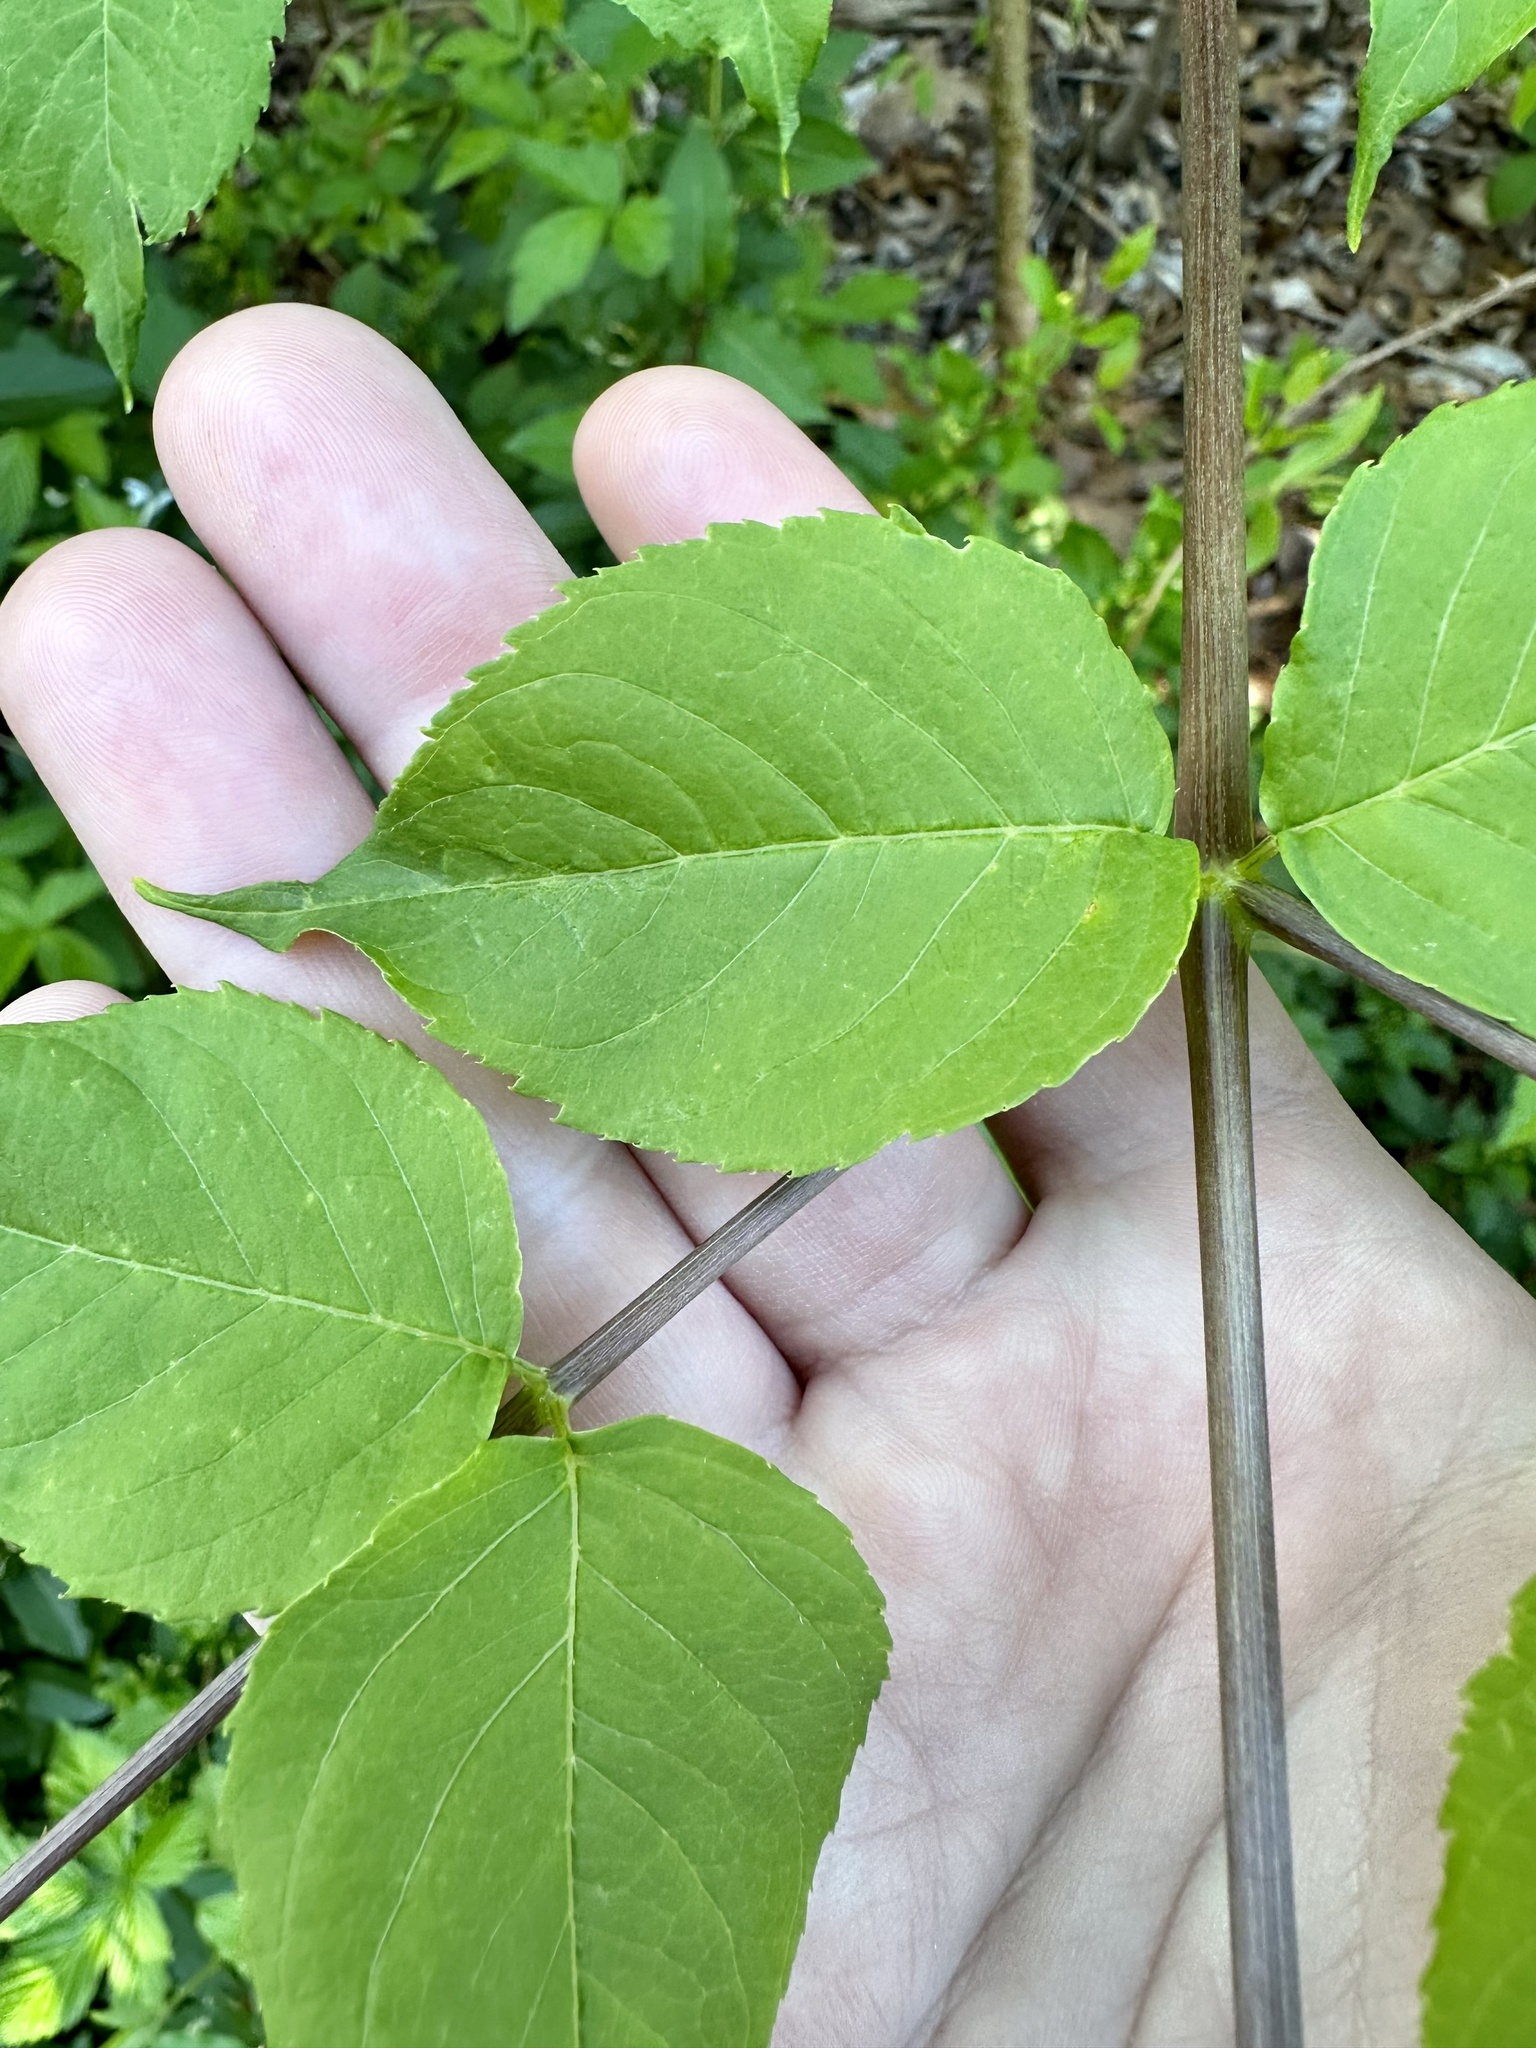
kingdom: Plantae
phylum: Tracheophyta
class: Magnoliopsida
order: Apiales
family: Araliaceae
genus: Aralia
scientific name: Aralia spinosa
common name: Hercules'-club
